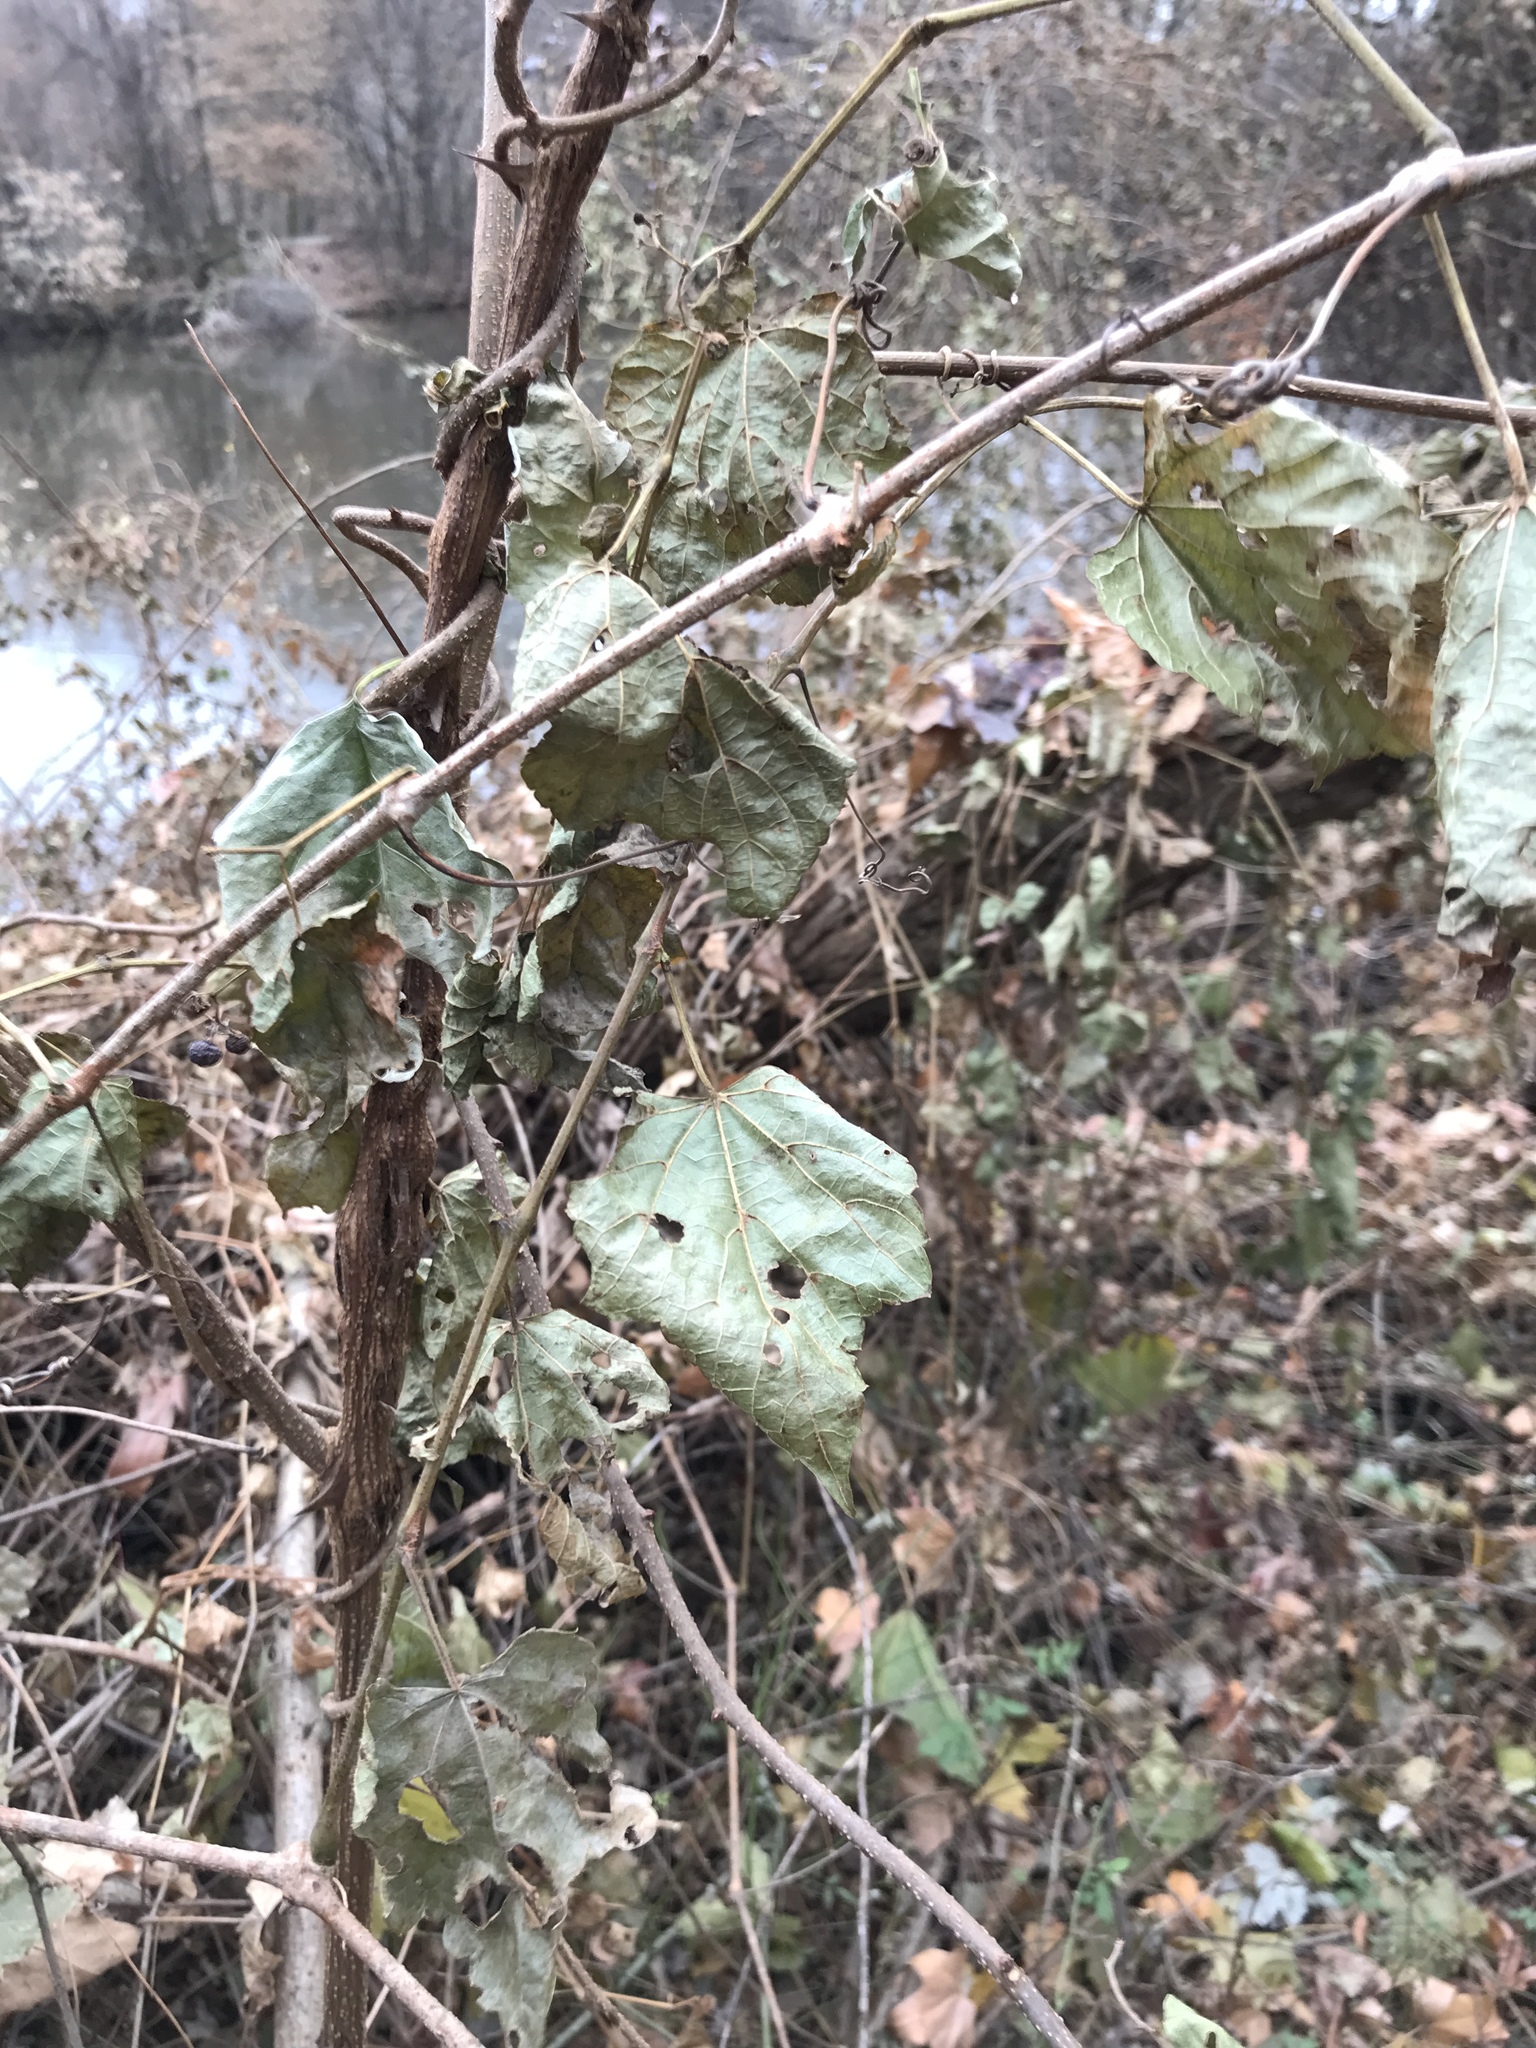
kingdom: Plantae
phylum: Tracheophyta
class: Magnoliopsida
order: Vitales
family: Vitaceae
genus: Ampelopsis
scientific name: Ampelopsis glandulosa
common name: Amur peppervine
